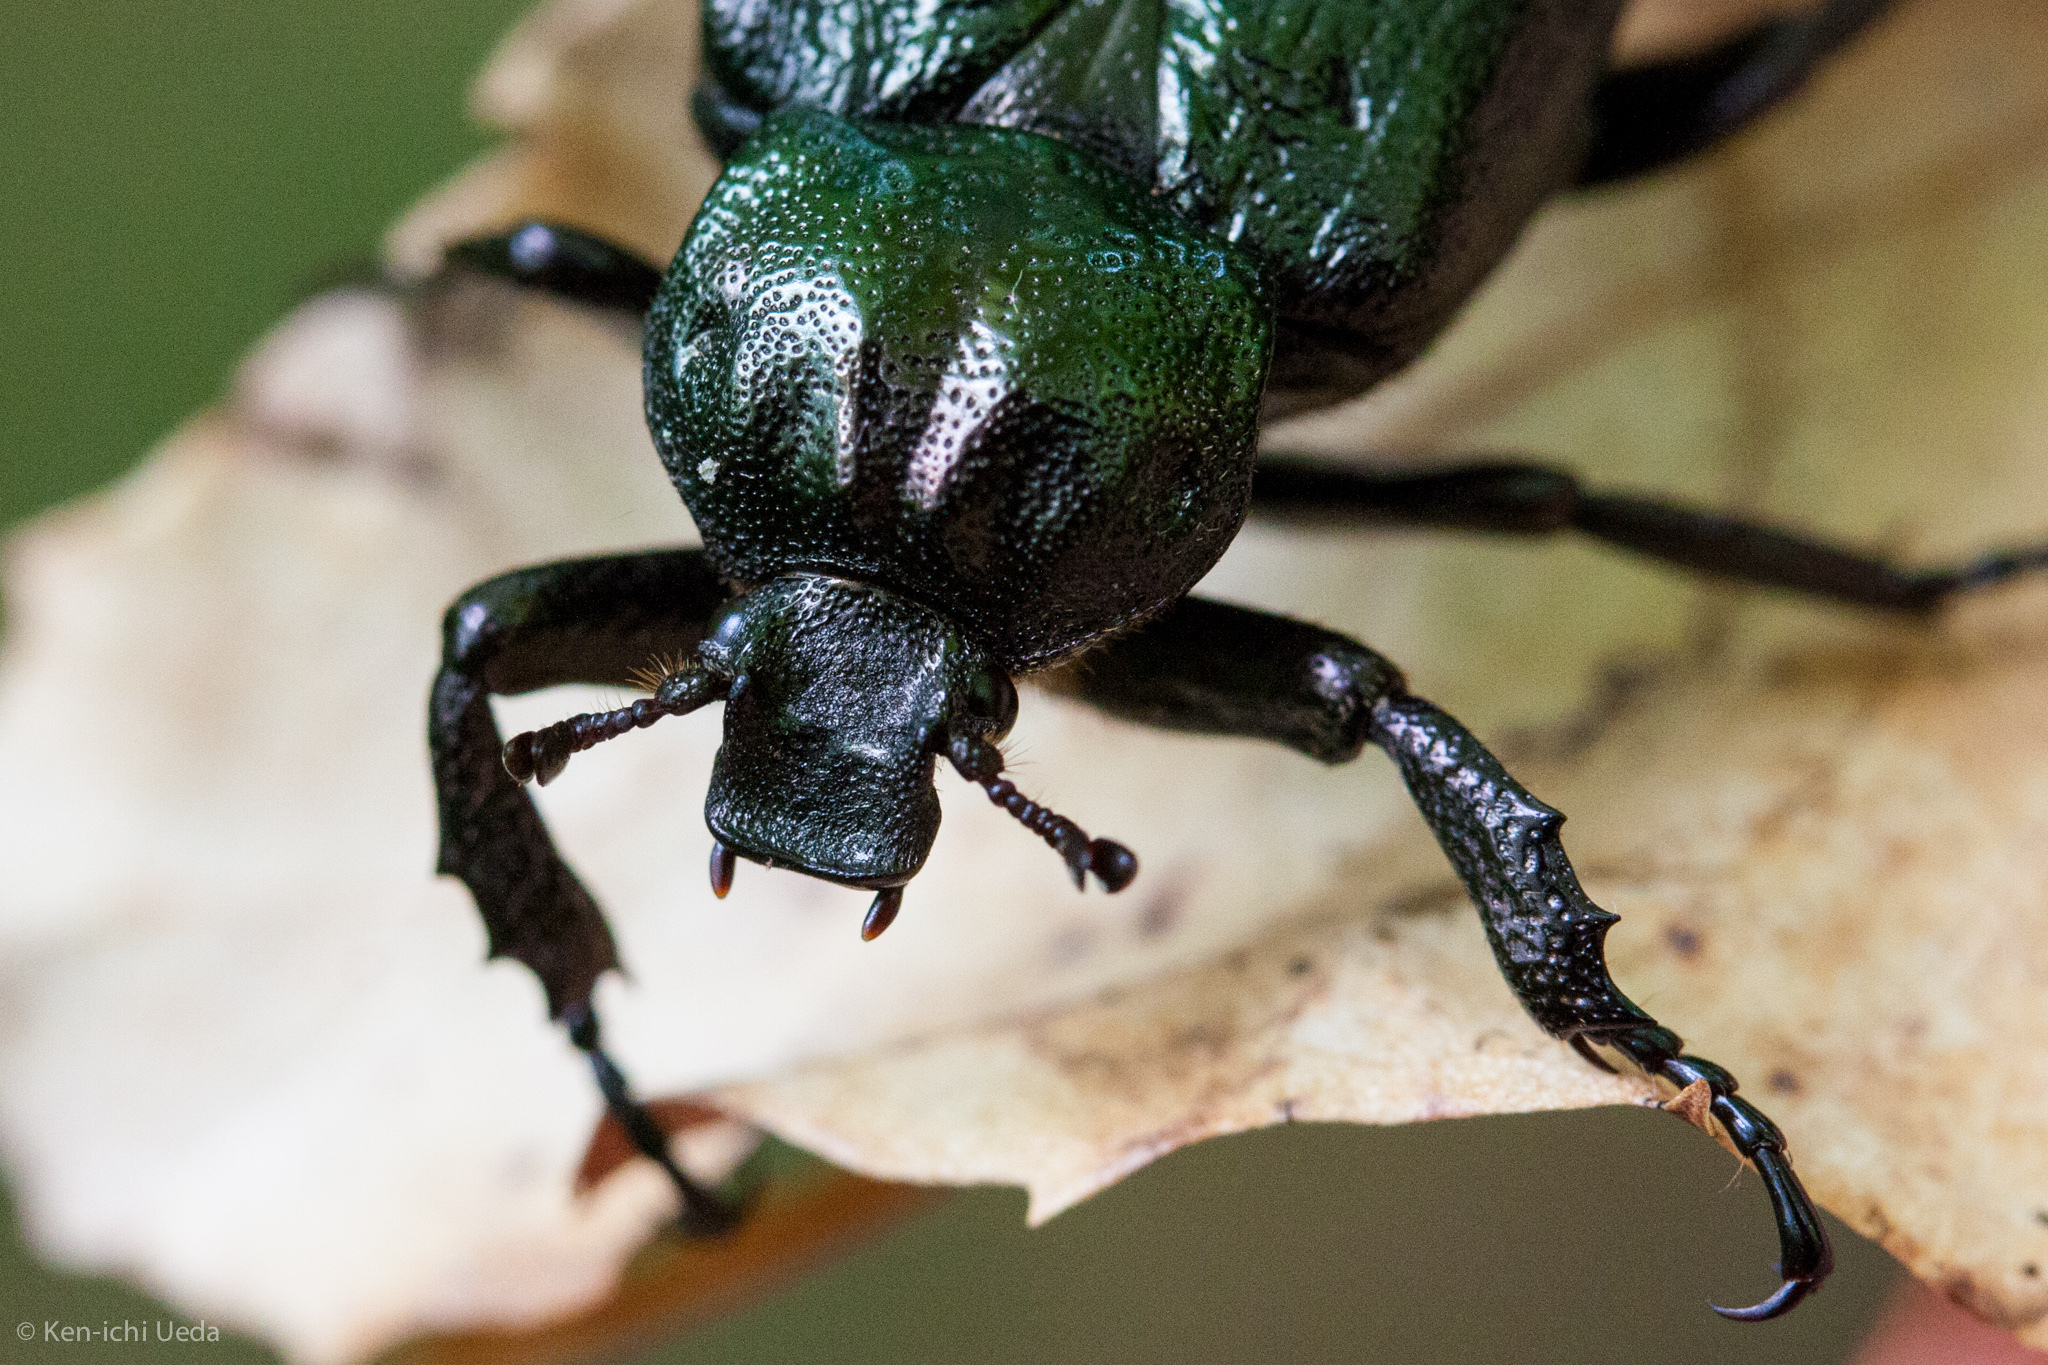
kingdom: Animalia
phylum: Arthropoda
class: Insecta
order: Coleoptera
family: Scarabaeidae
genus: Osmoderma
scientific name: Osmoderma scabra
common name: Rough hermit beetle
